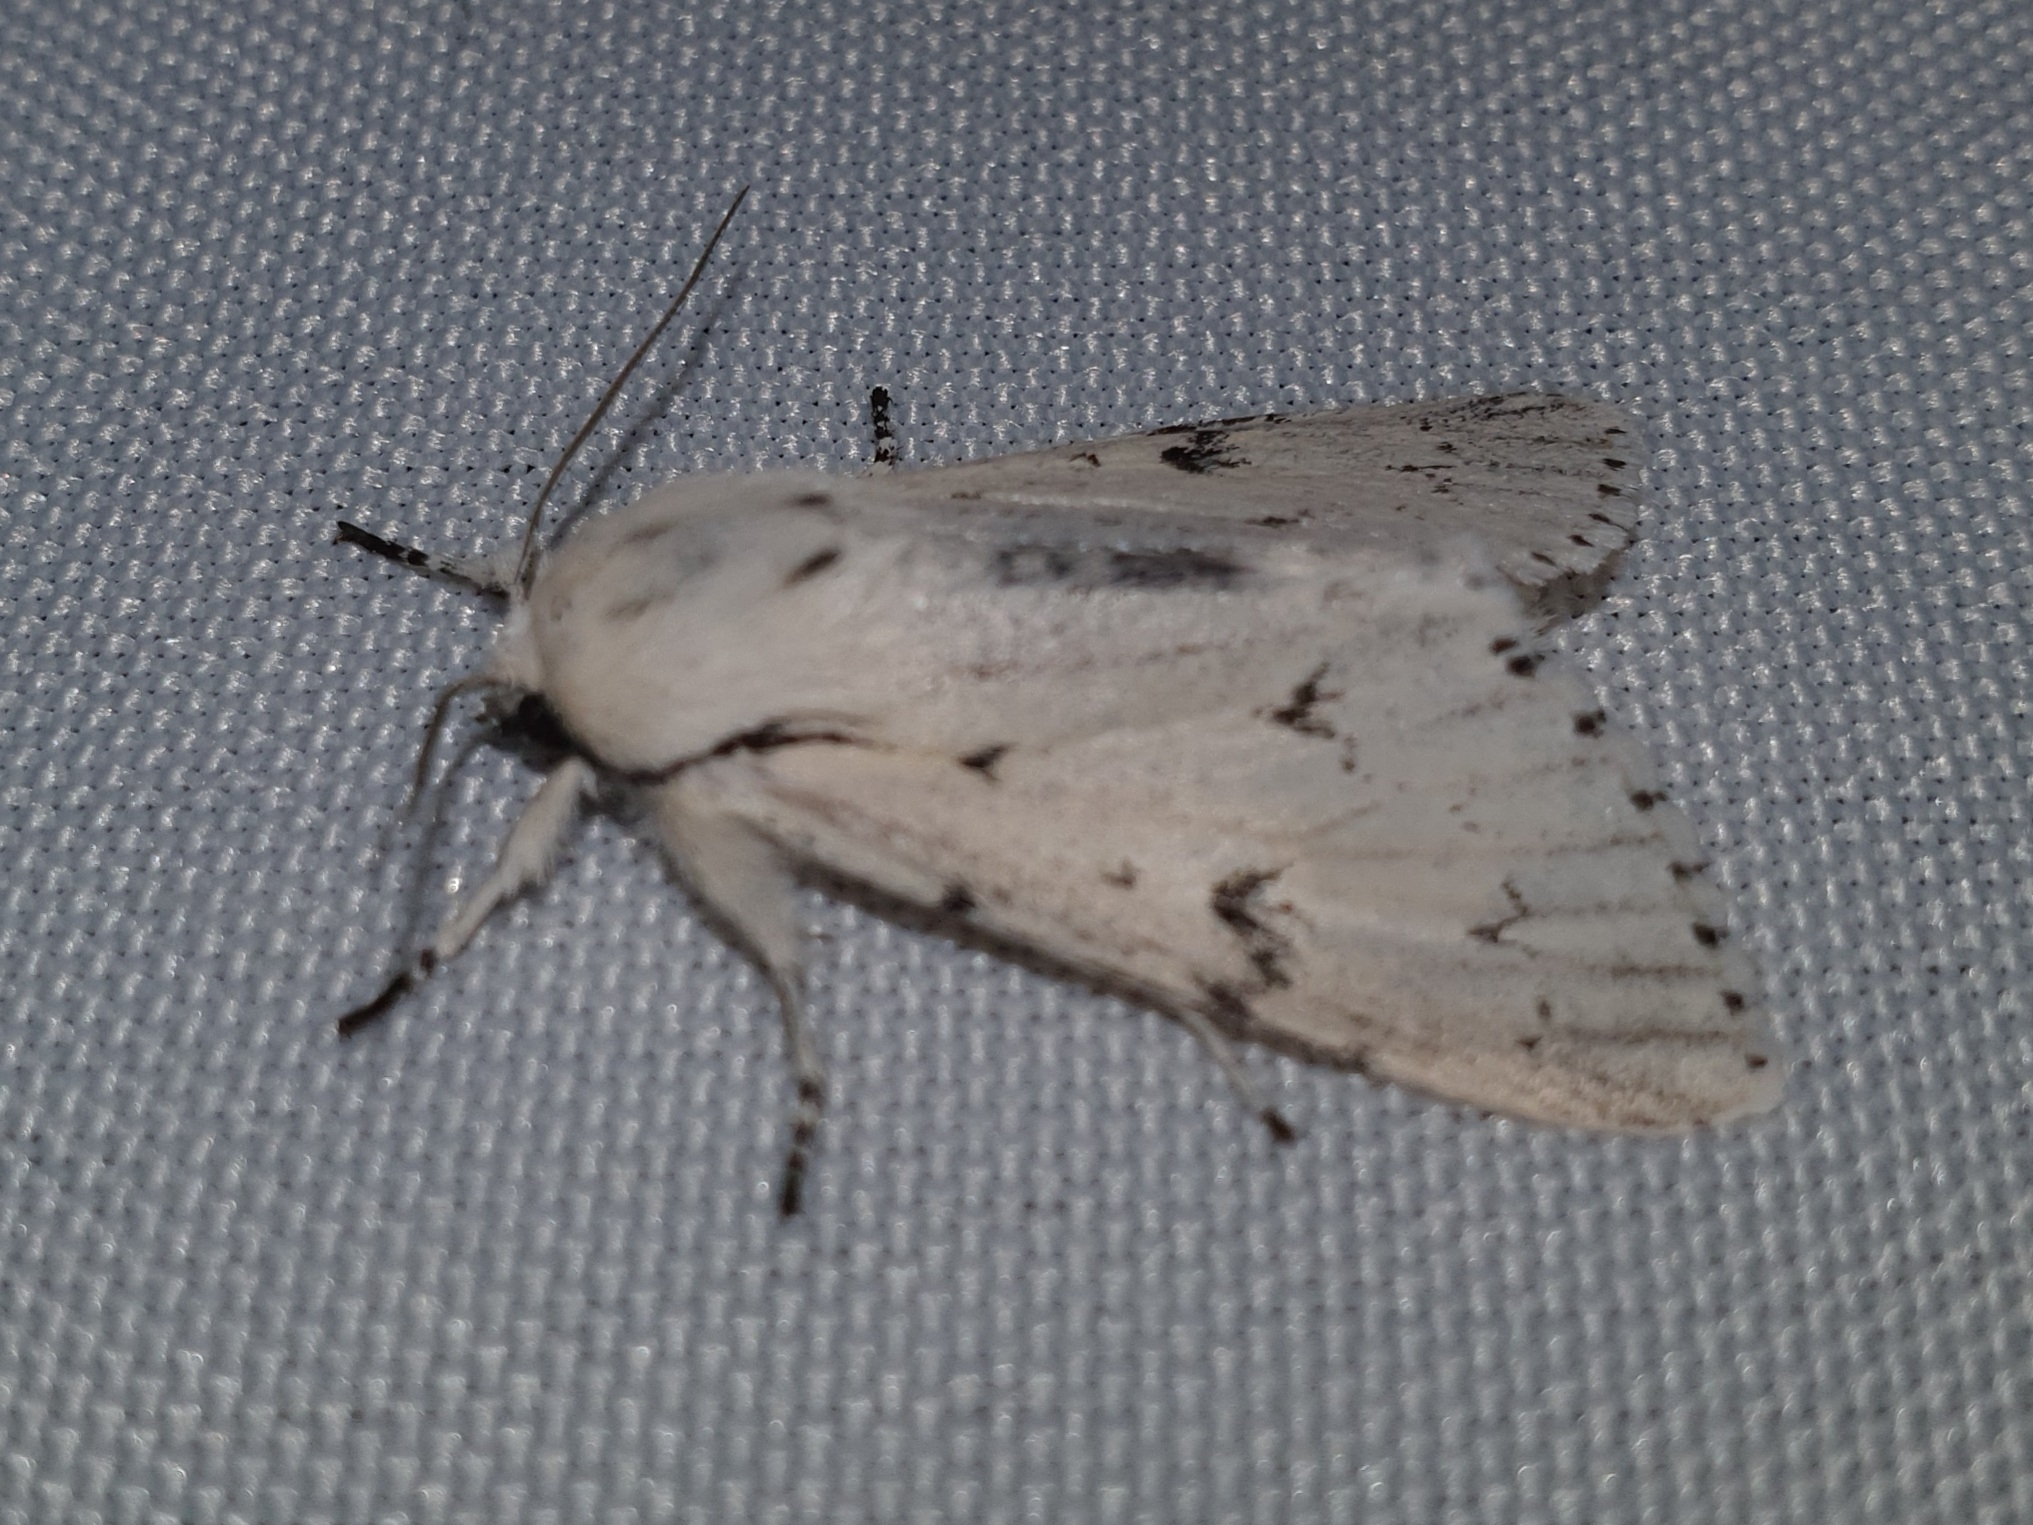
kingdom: Animalia
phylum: Arthropoda
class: Insecta
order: Lepidoptera
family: Noctuidae
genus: Acronicta
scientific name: Acronicta leporina
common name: Miller
